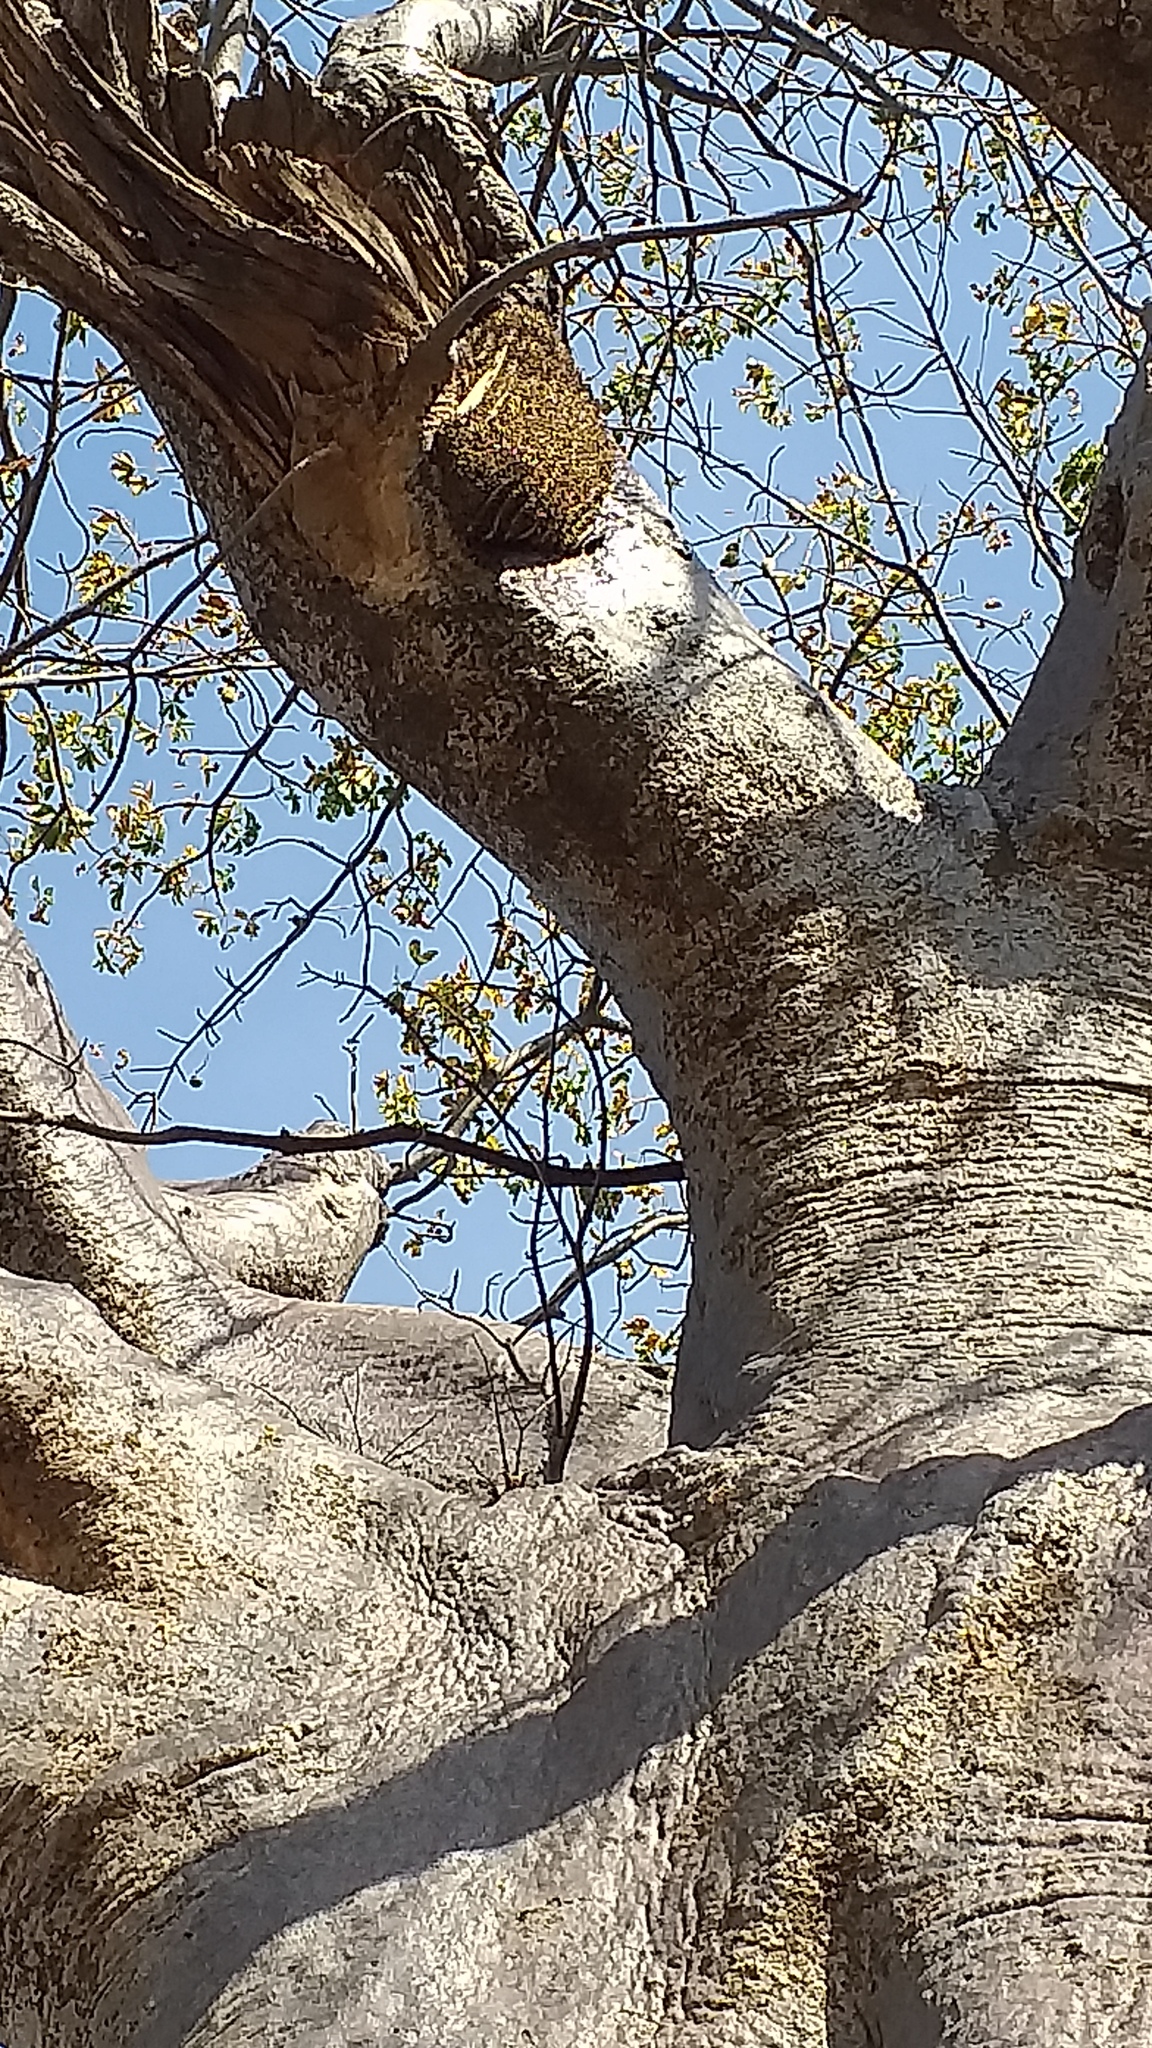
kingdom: Animalia
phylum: Arthropoda
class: Insecta
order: Hymenoptera
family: Apidae
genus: Apis
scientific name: Apis mellifera
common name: Honey bee
